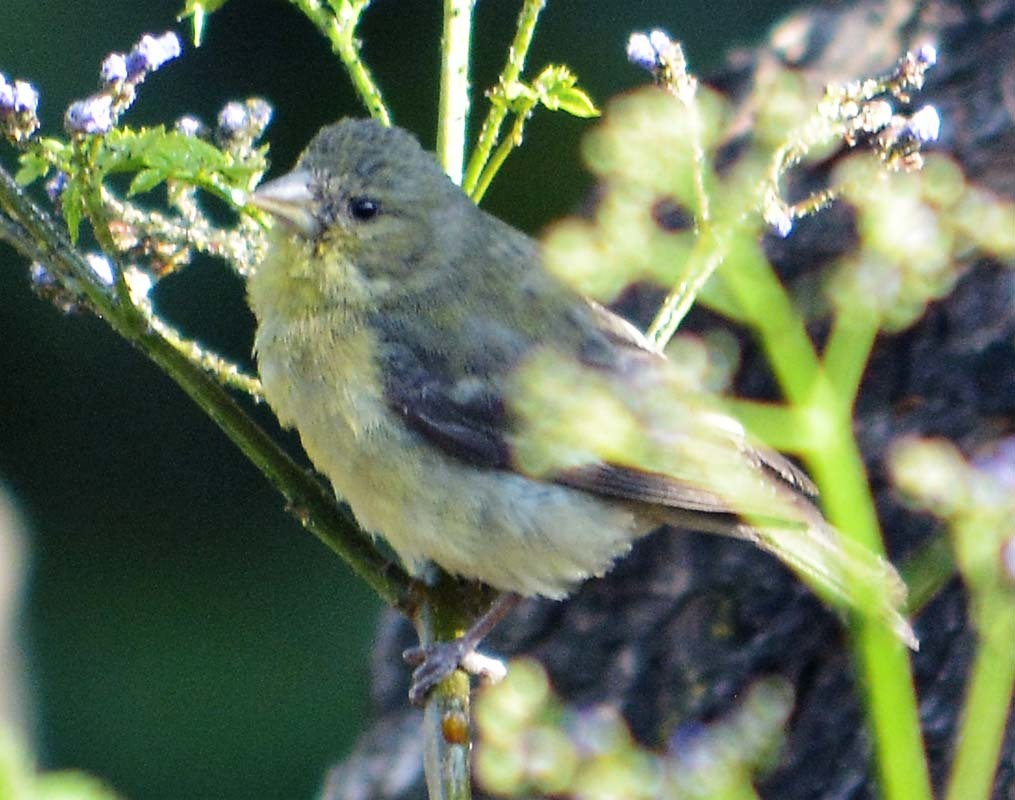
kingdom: Animalia
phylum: Chordata
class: Aves
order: Passeriformes
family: Fringillidae
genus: Spinus
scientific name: Spinus psaltria
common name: Lesser goldfinch
